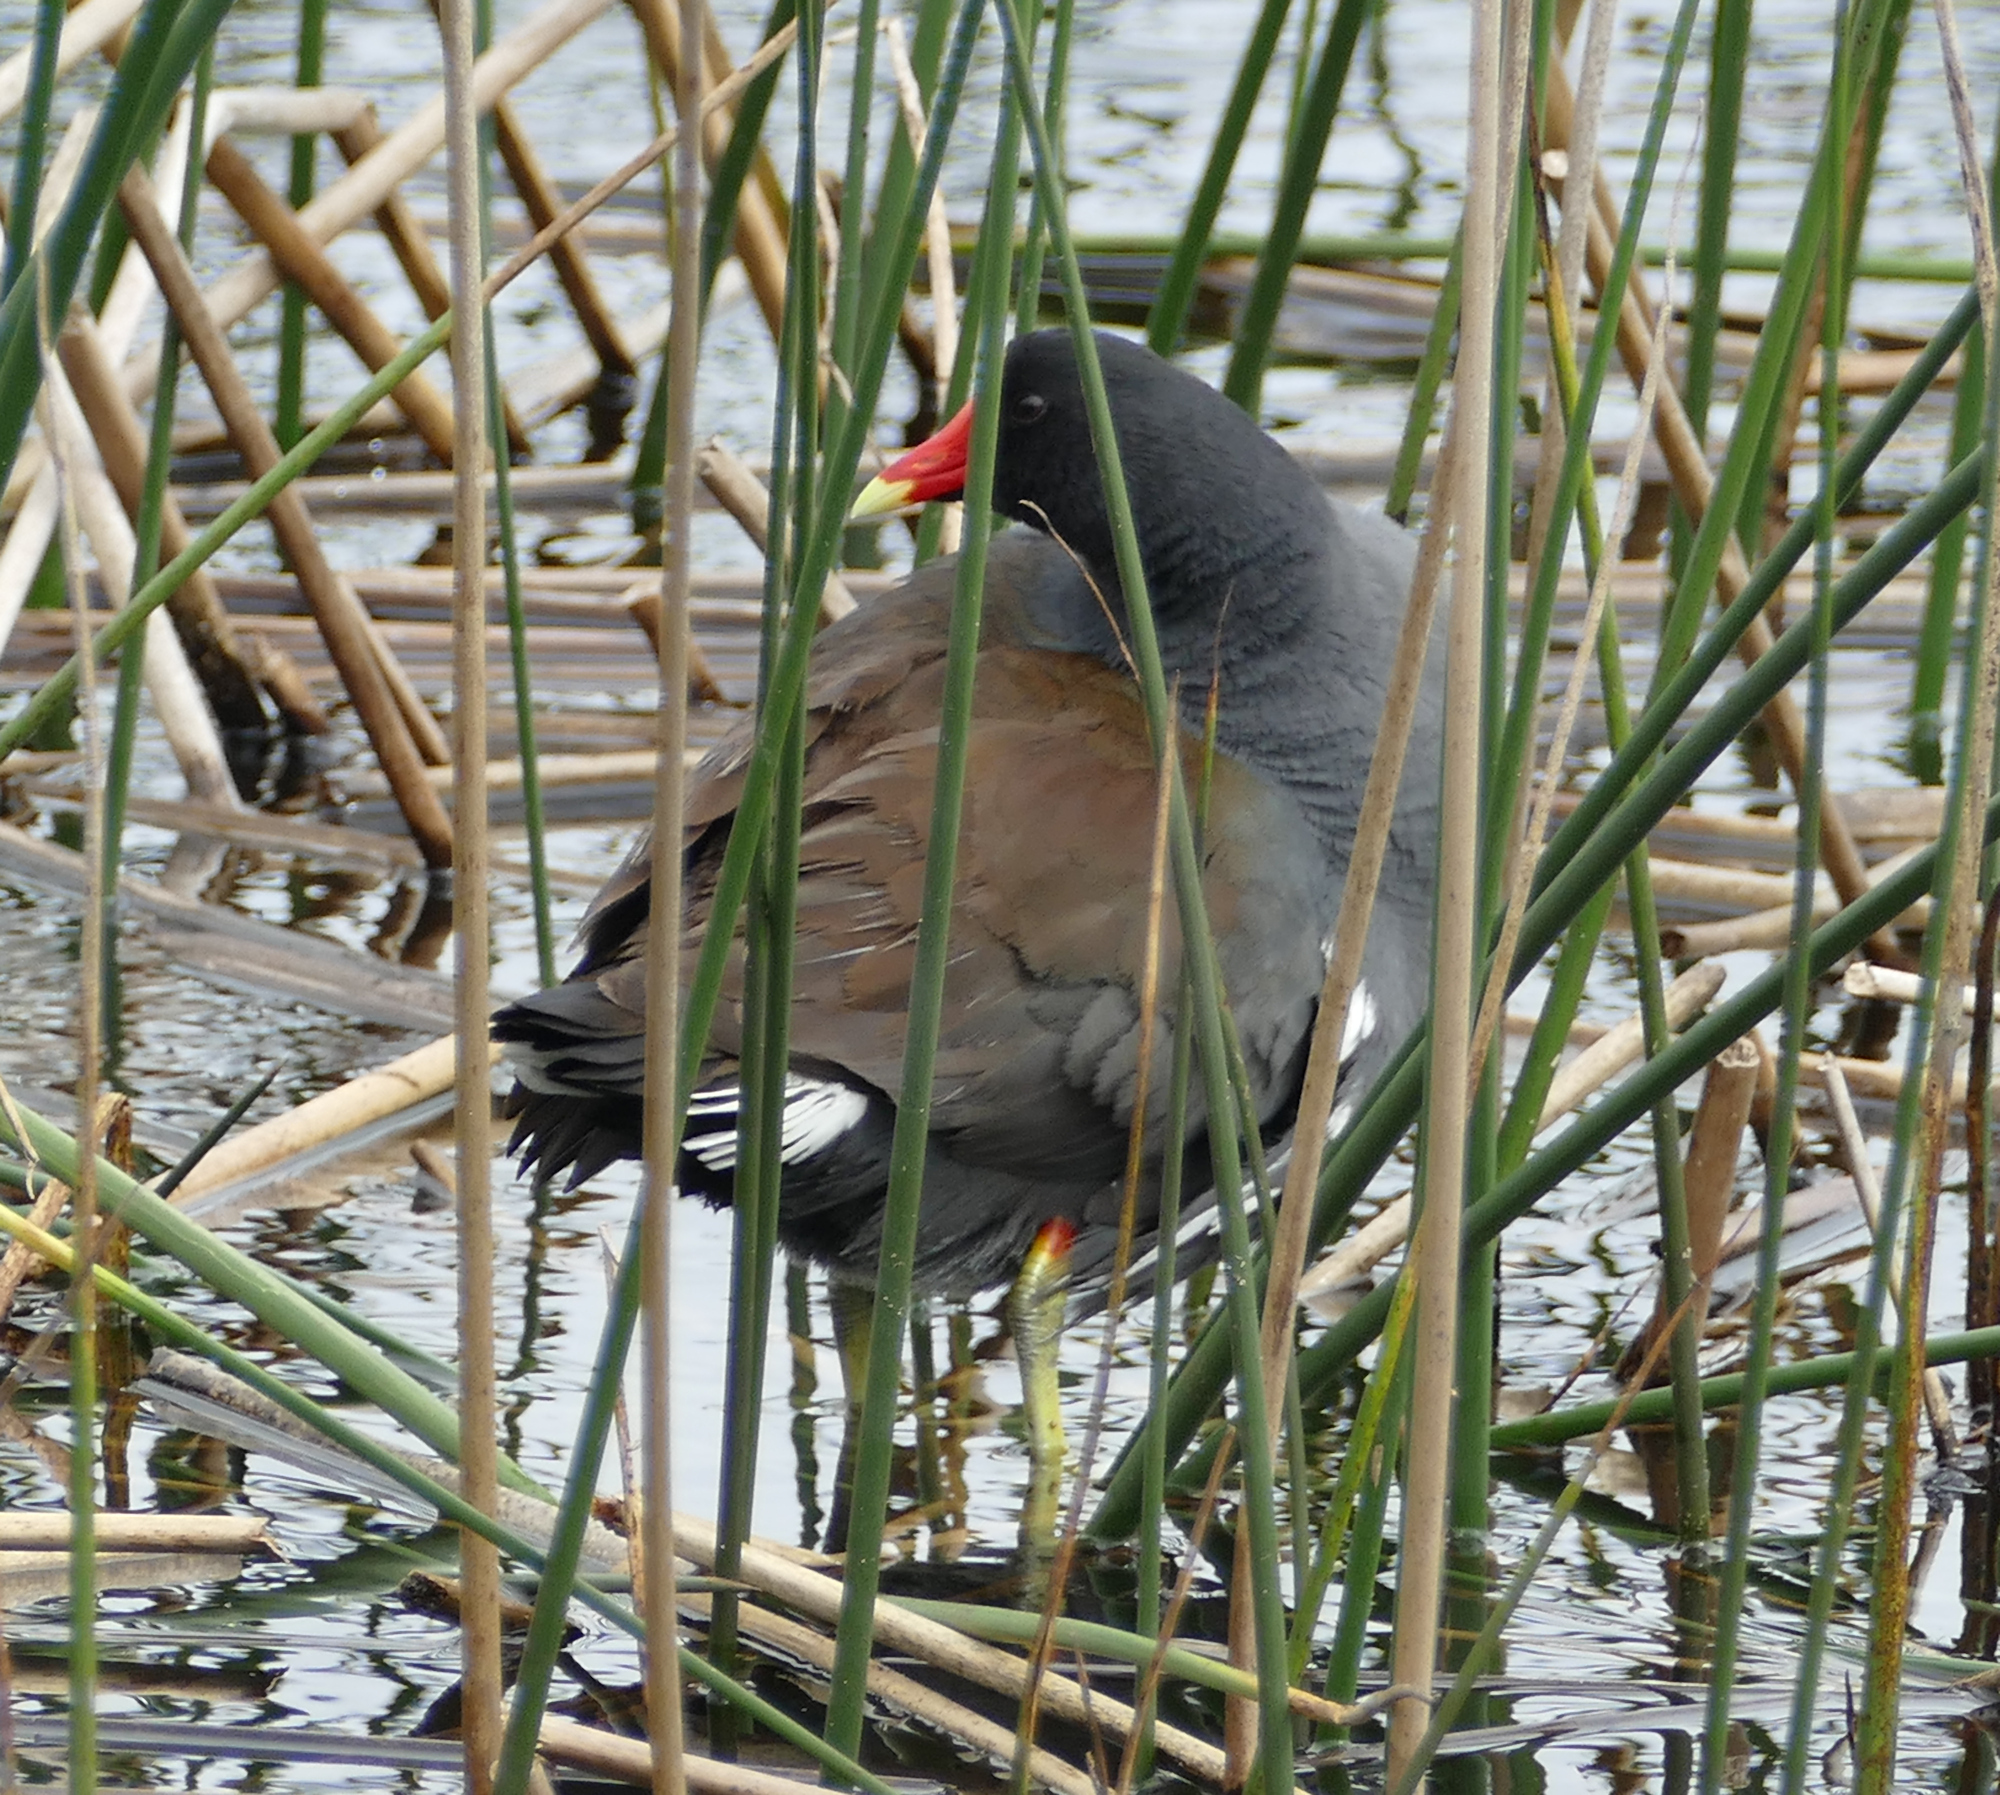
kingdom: Animalia
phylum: Chordata
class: Aves
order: Gruiformes
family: Rallidae
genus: Gallinula
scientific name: Gallinula chloropus
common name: Common moorhen
